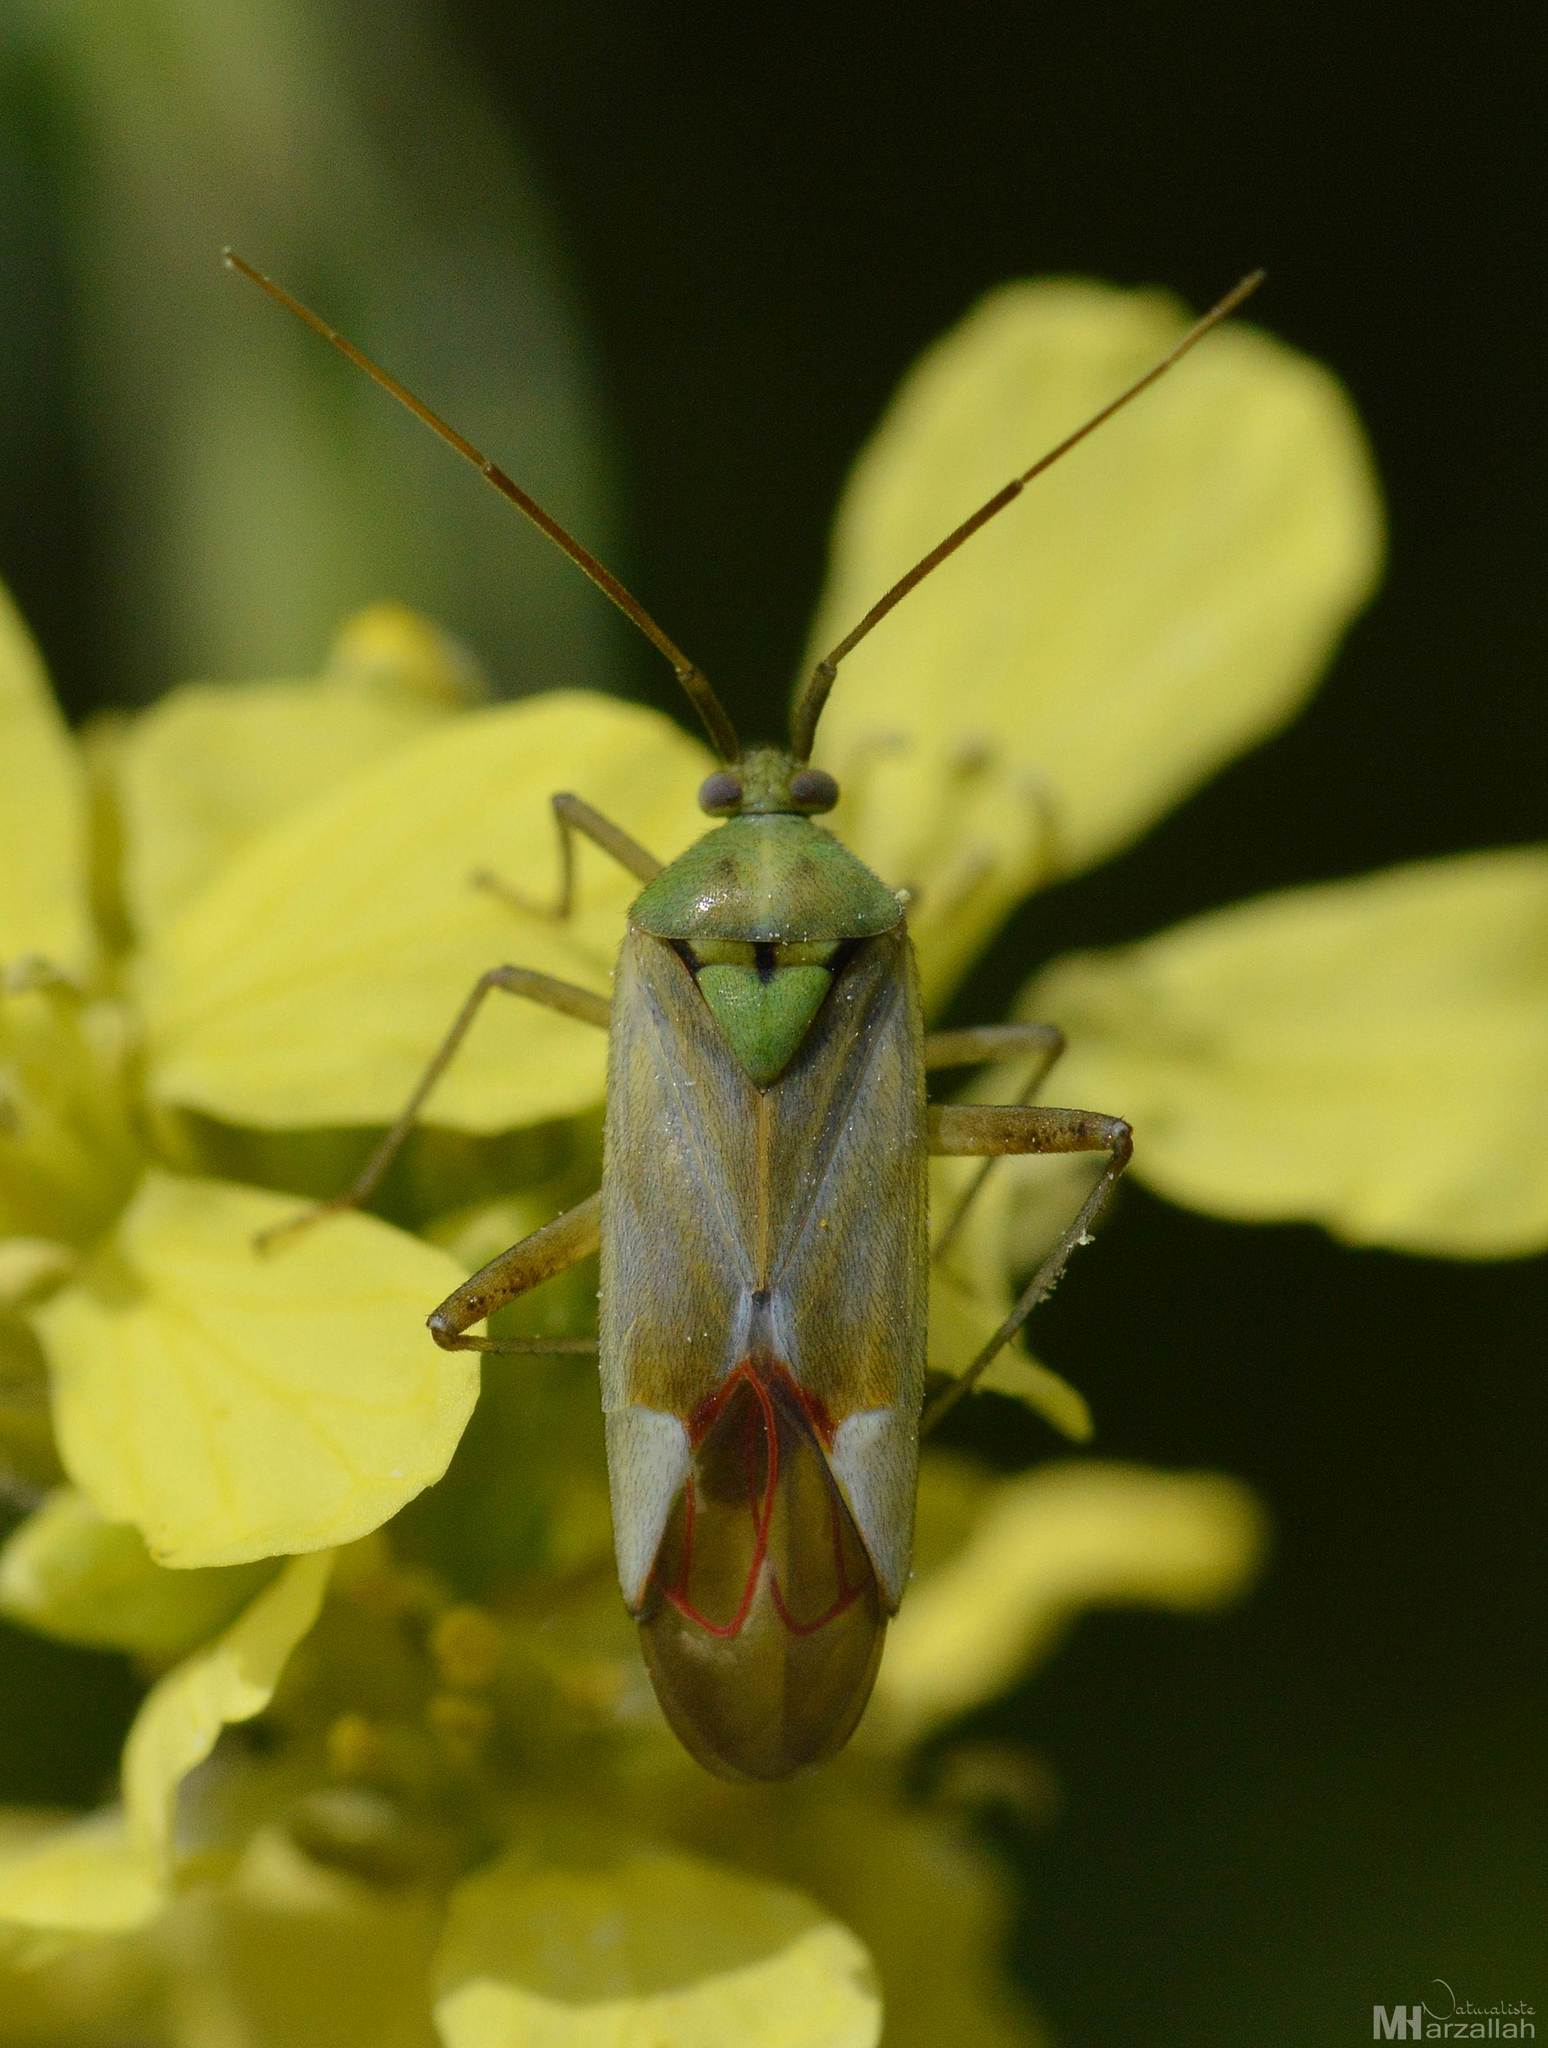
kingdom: Animalia
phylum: Arthropoda
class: Insecta
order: Hemiptera
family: Miridae
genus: Reuterista
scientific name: Reuterista instabilis
